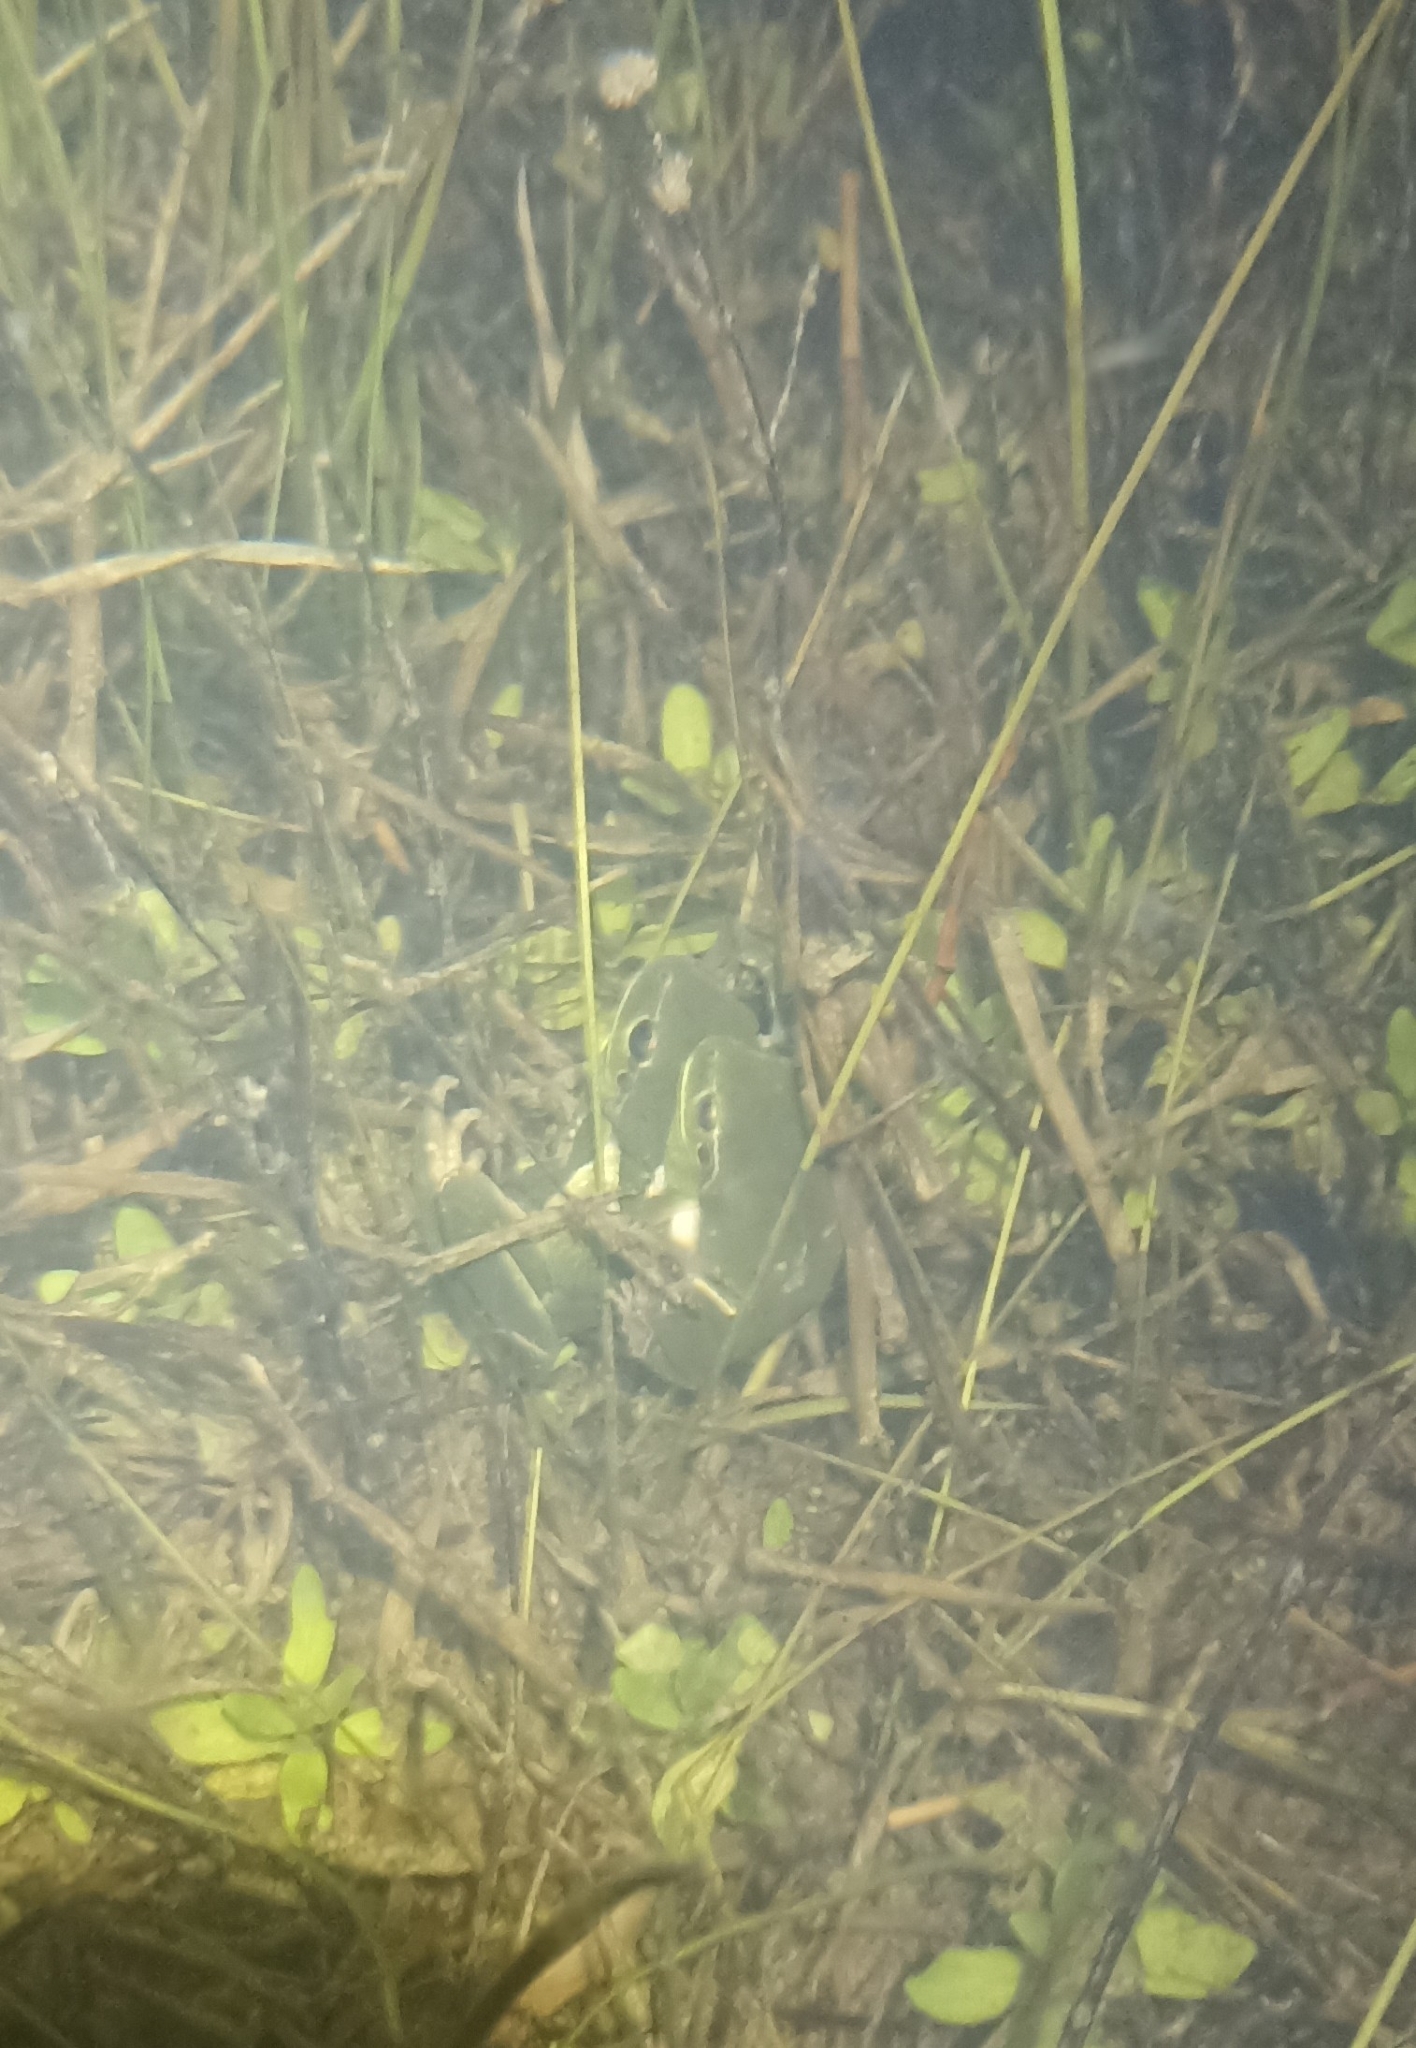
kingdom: Animalia
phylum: Chordata
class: Amphibia
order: Anura
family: Hylidae
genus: Hyla
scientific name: Hyla meridionalis
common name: Stripeless tree frog
